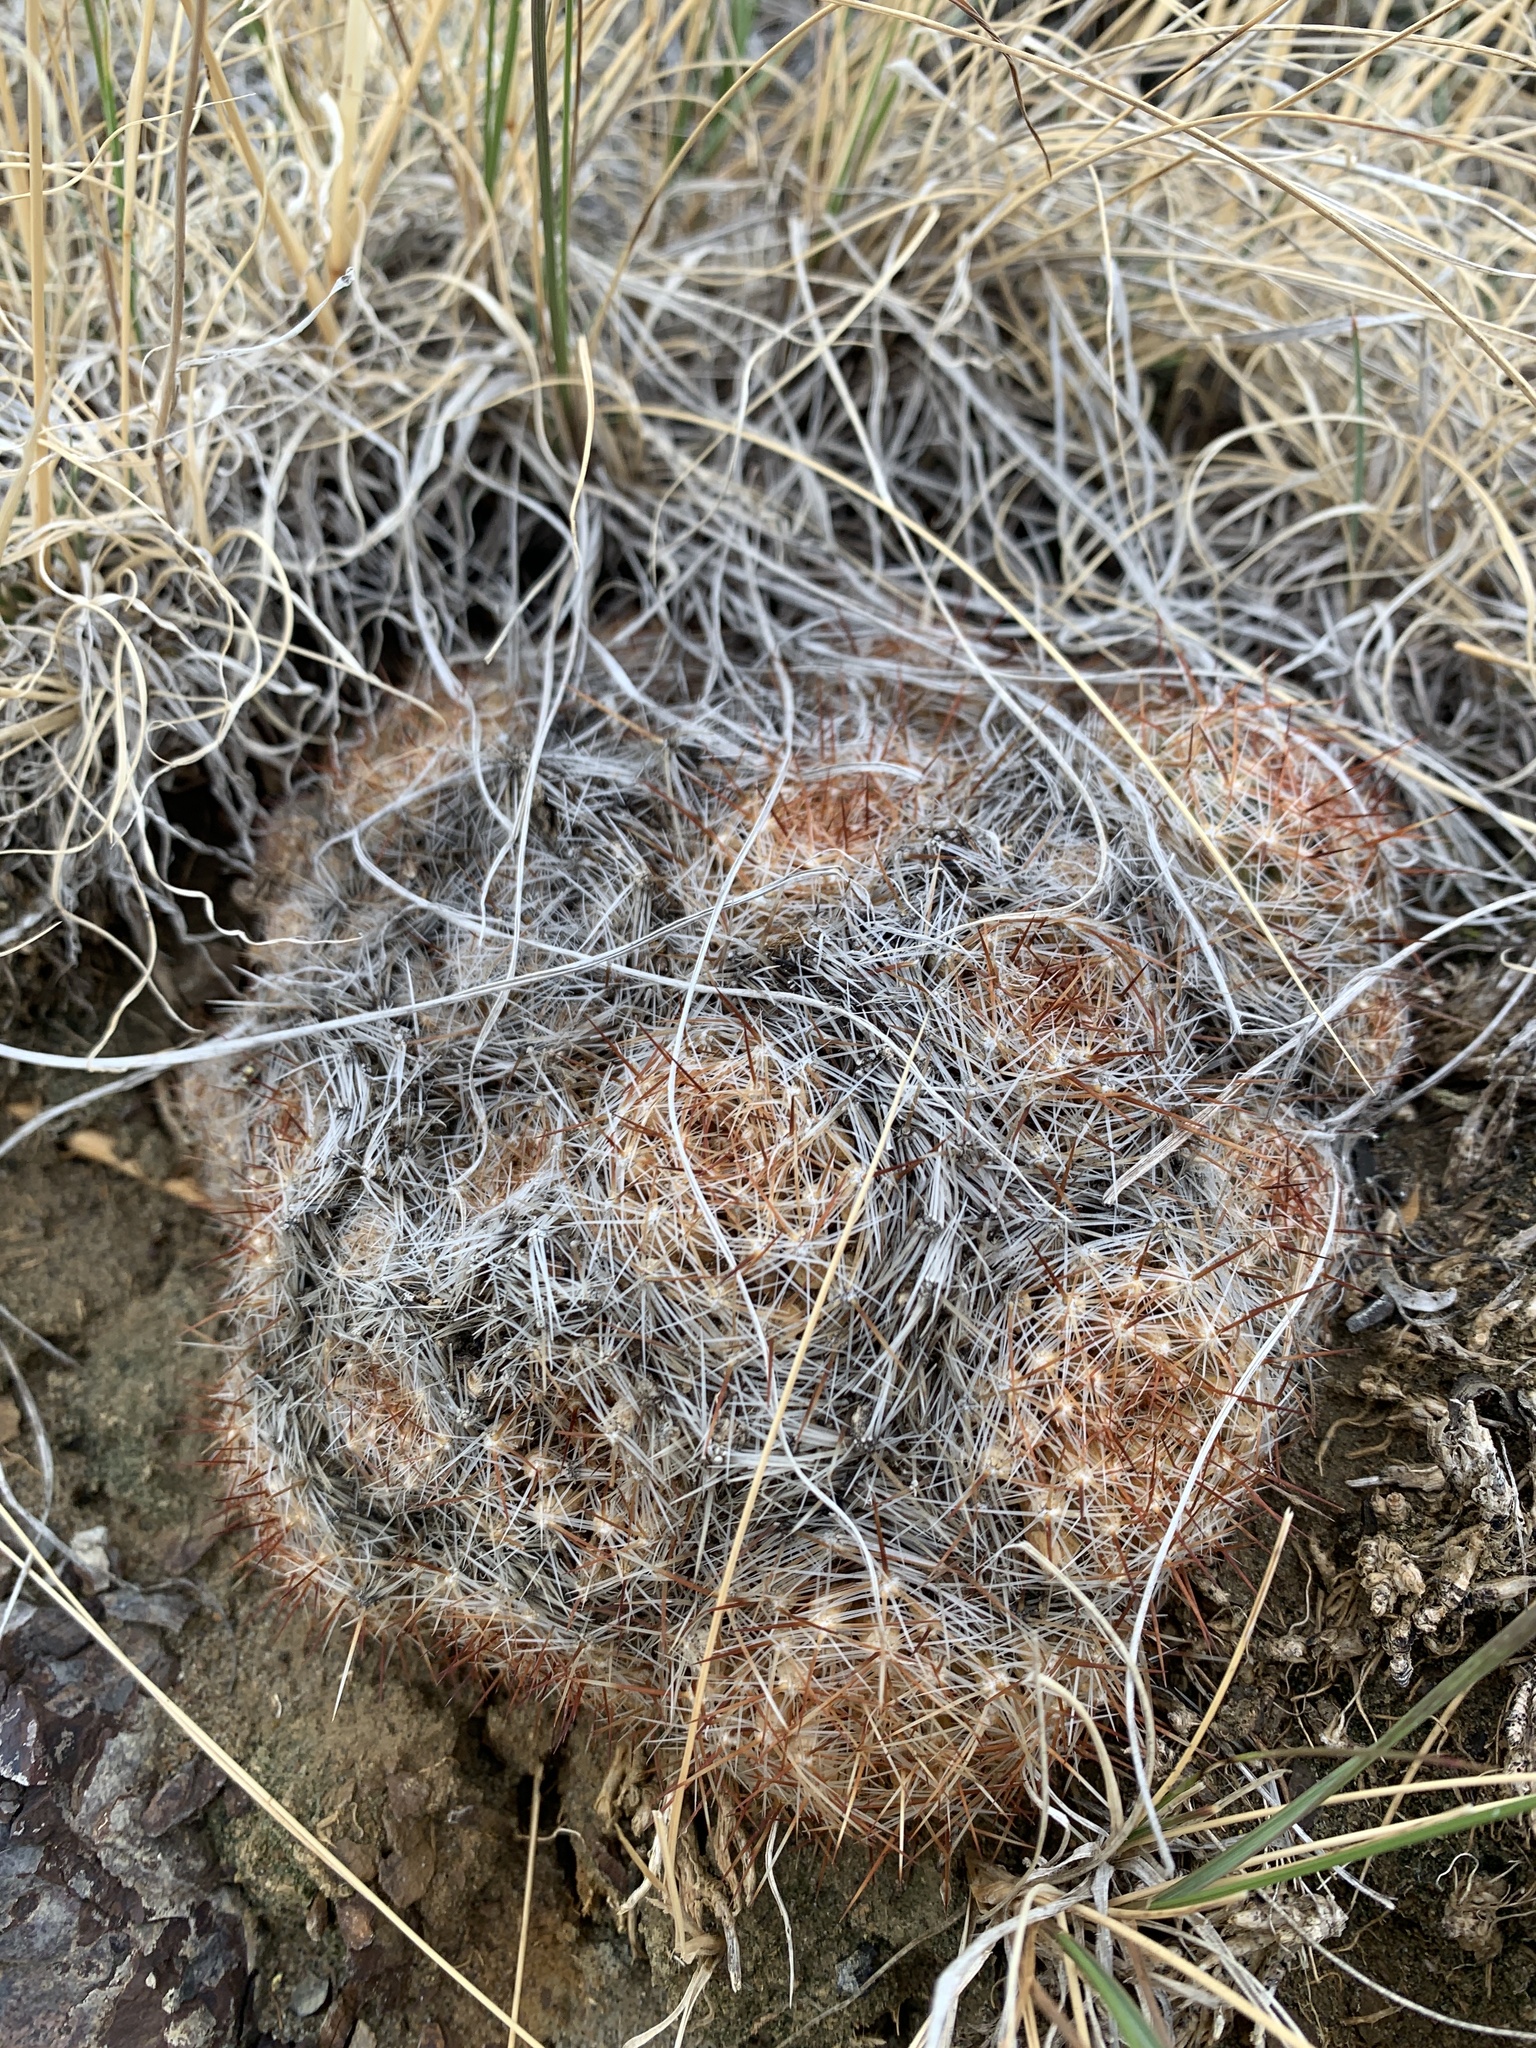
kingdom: Plantae
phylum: Tracheophyta
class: Magnoliopsida
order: Caryophyllales
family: Cactaceae
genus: Pelecyphora
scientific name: Pelecyphora vivipara
